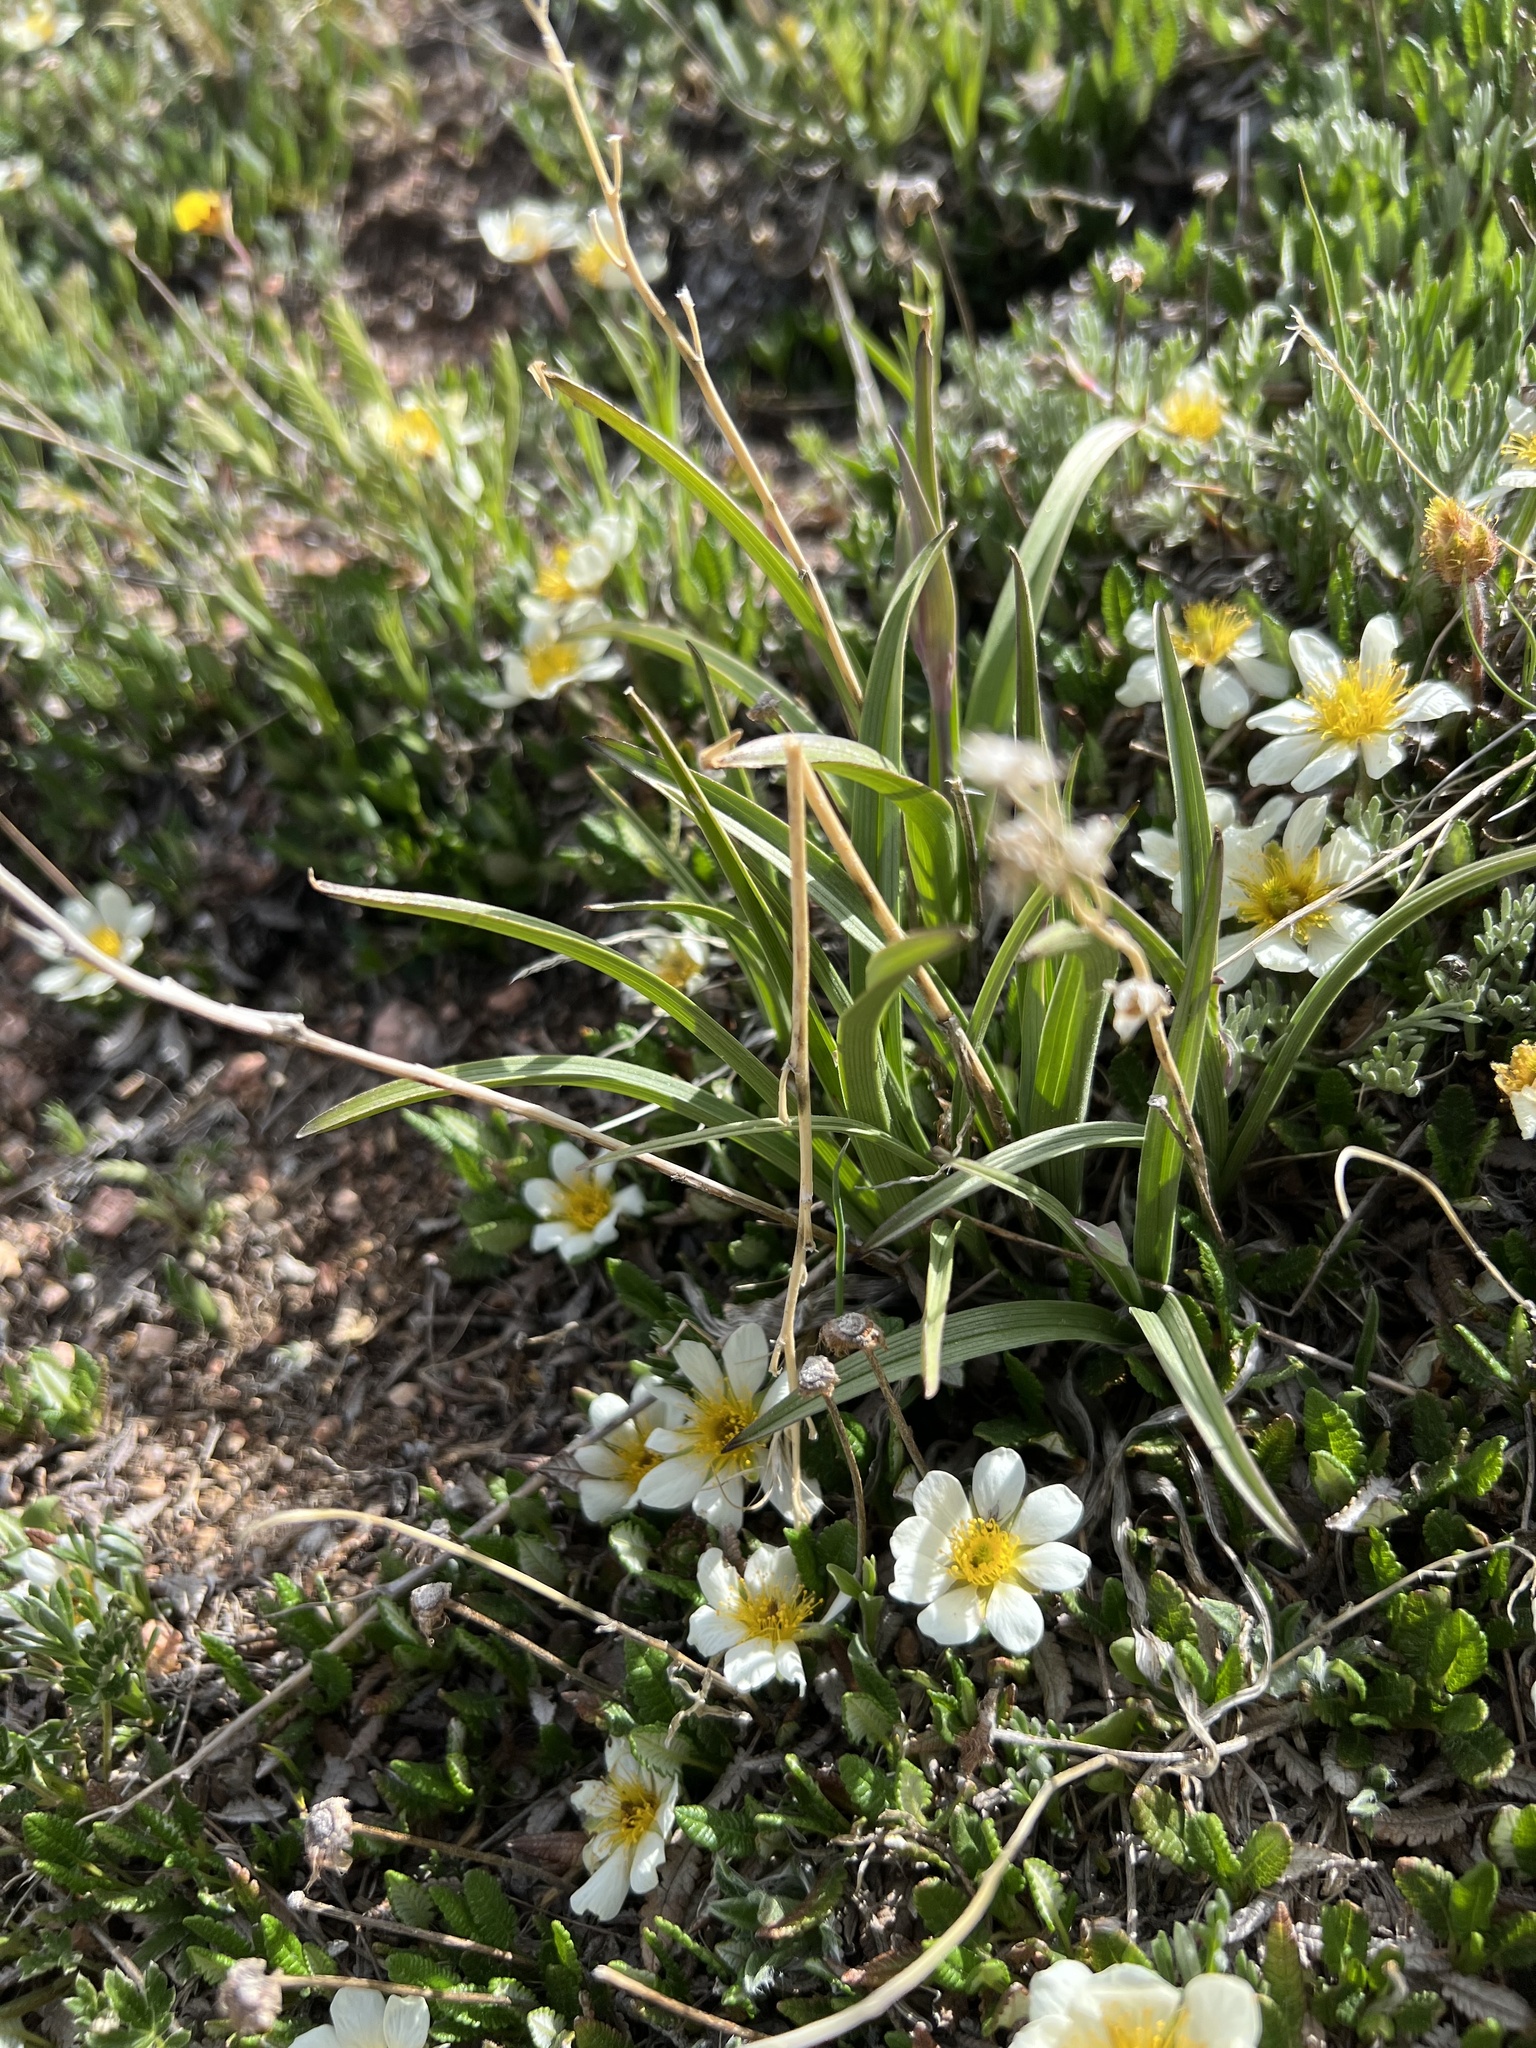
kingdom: Plantae
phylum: Tracheophyta
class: Magnoliopsida
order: Rosales
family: Rosaceae
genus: Dryas
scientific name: Dryas octopetala
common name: Eight-petal mountain-avens
